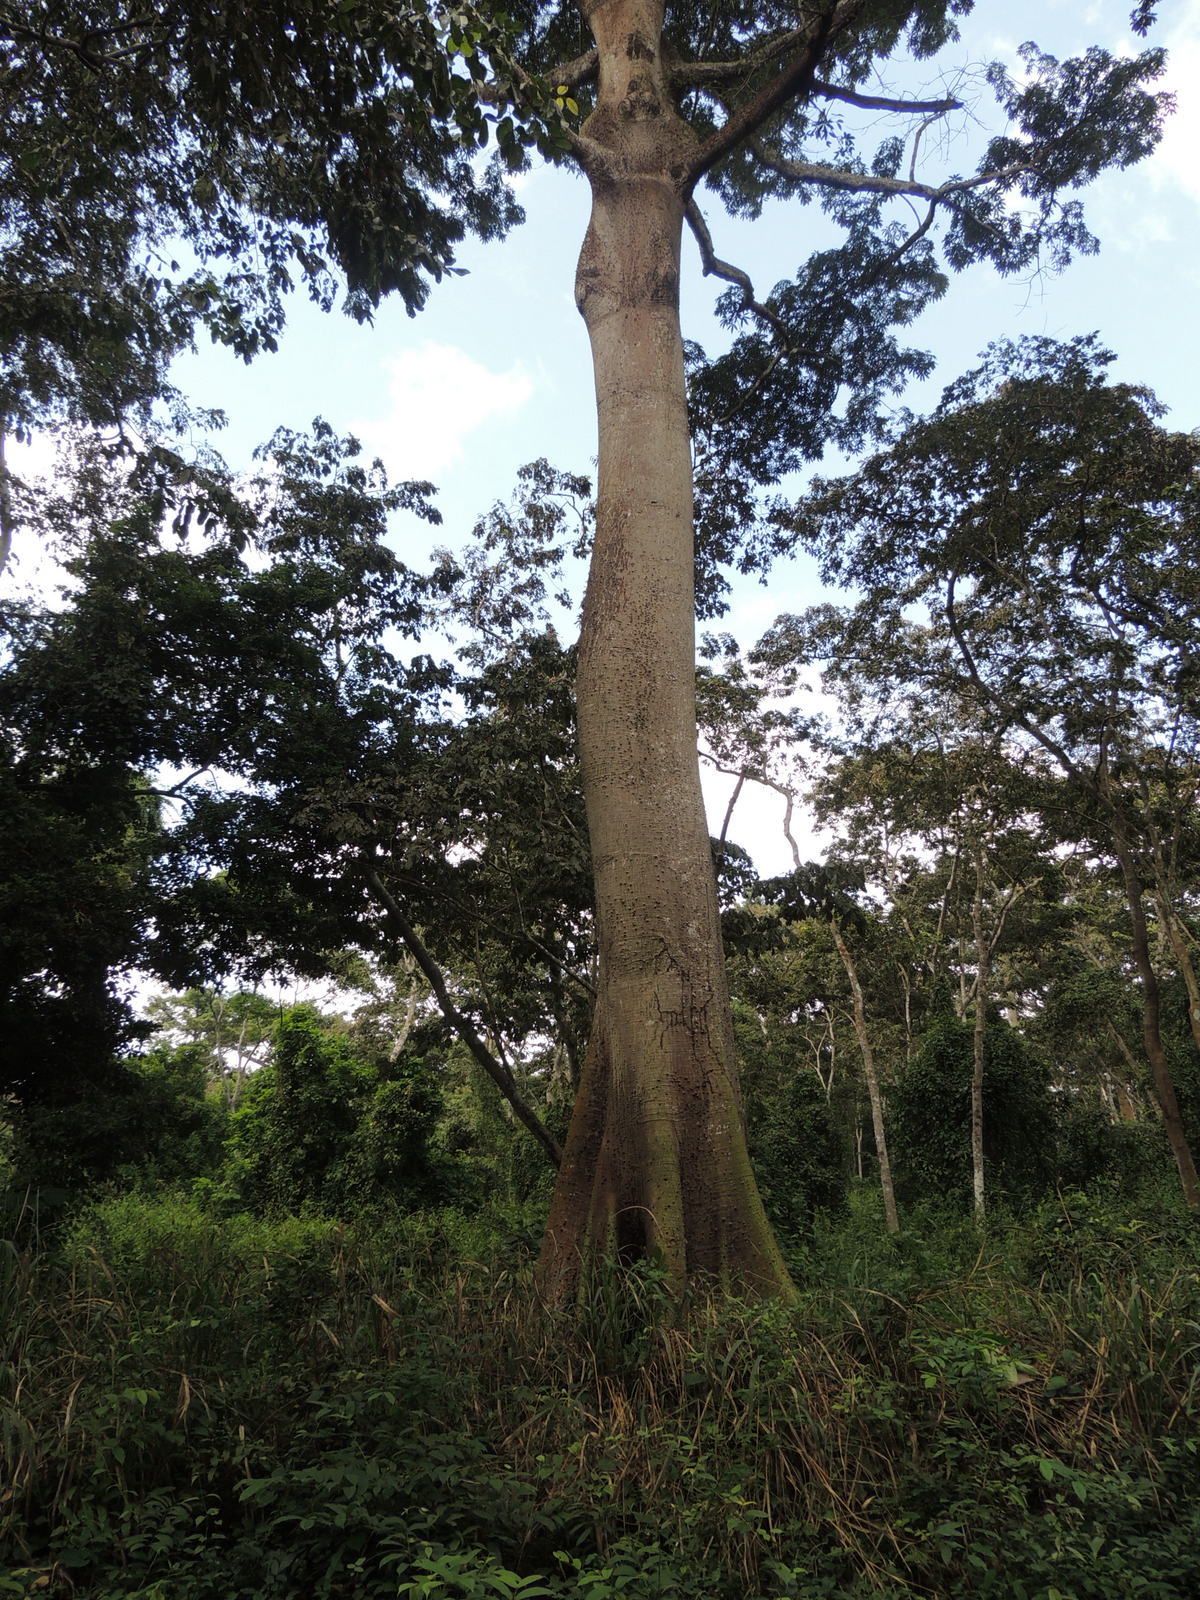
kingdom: Plantae
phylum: Tracheophyta
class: Magnoliopsida
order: Malvales
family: Malvaceae
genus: Ceiba
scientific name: Ceiba pentandra
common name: Kapok
